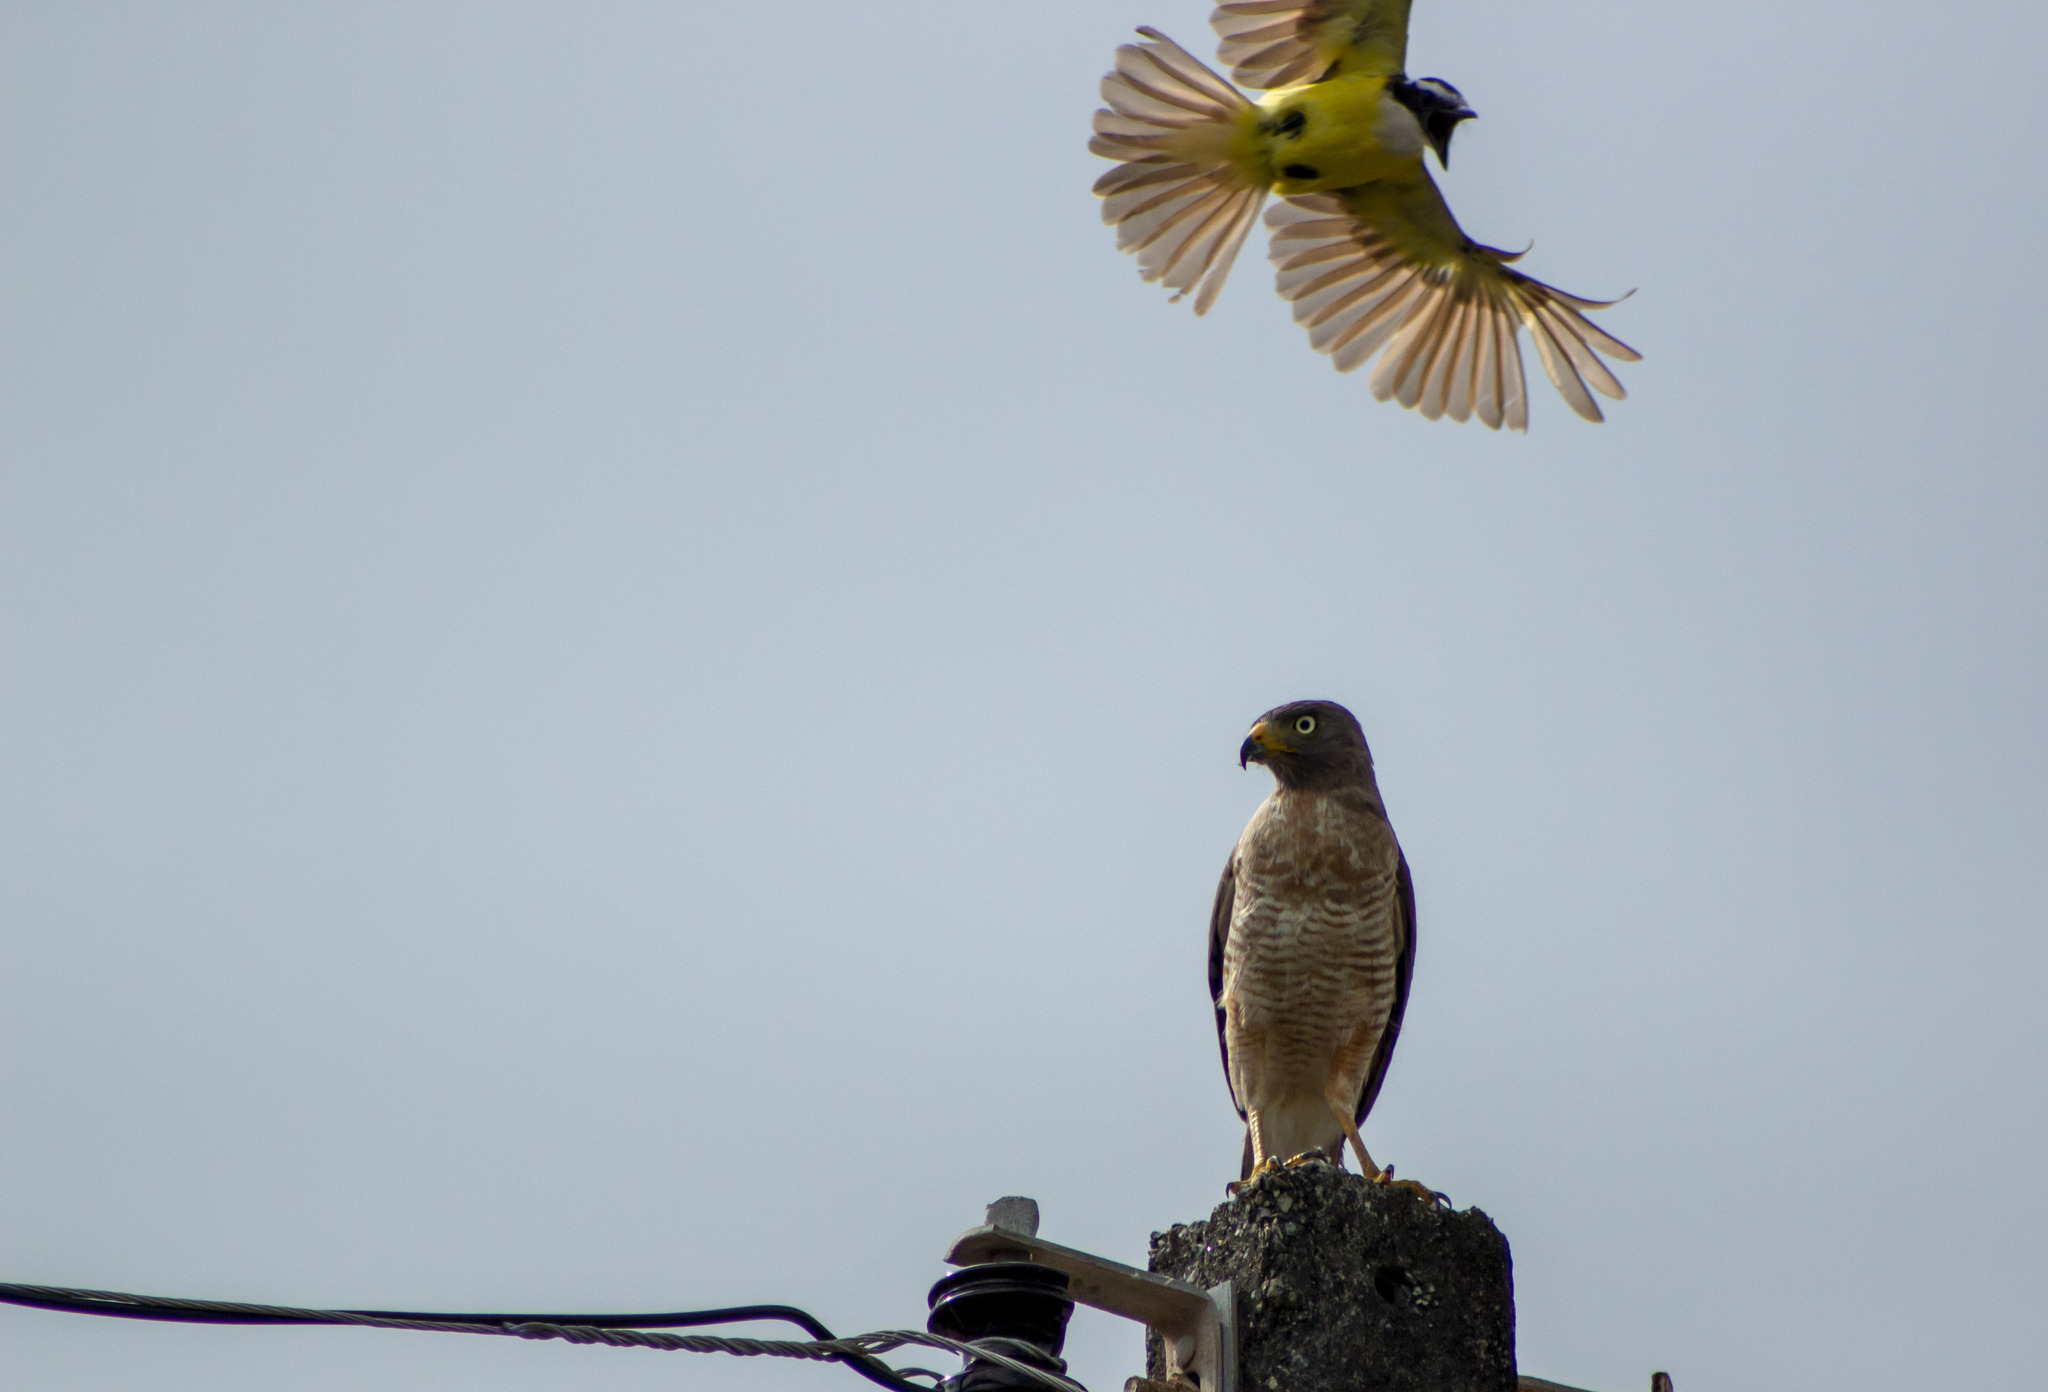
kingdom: Animalia
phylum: Chordata
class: Aves
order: Accipitriformes
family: Accipitridae
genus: Rupornis
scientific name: Rupornis magnirostris
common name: Roadside hawk
